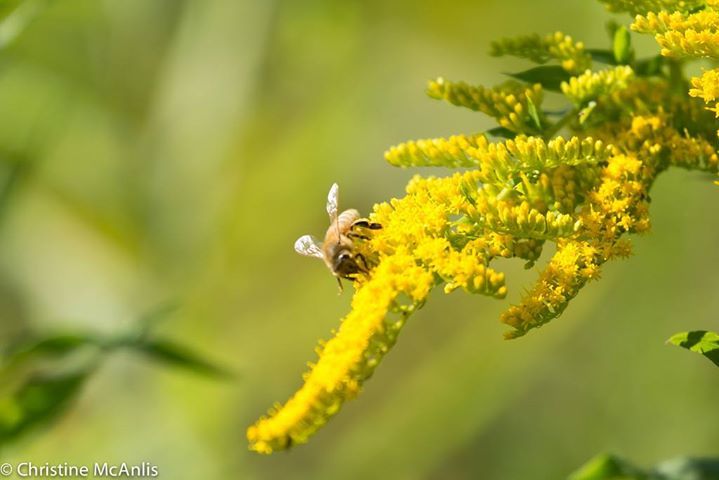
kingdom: Animalia
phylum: Arthropoda
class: Insecta
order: Hymenoptera
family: Apidae
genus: Apis
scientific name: Apis mellifera
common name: Honey bee
